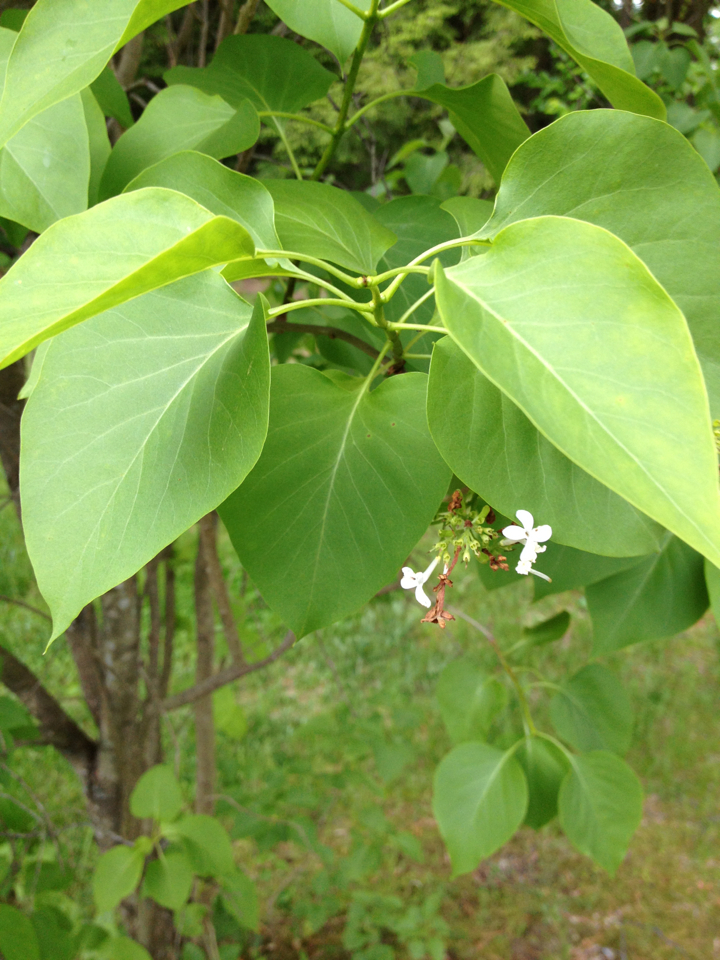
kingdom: Plantae
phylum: Tracheophyta
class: Magnoliopsida
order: Lamiales
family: Oleaceae
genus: Syringa
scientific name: Syringa vulgaris
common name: Common lilac
